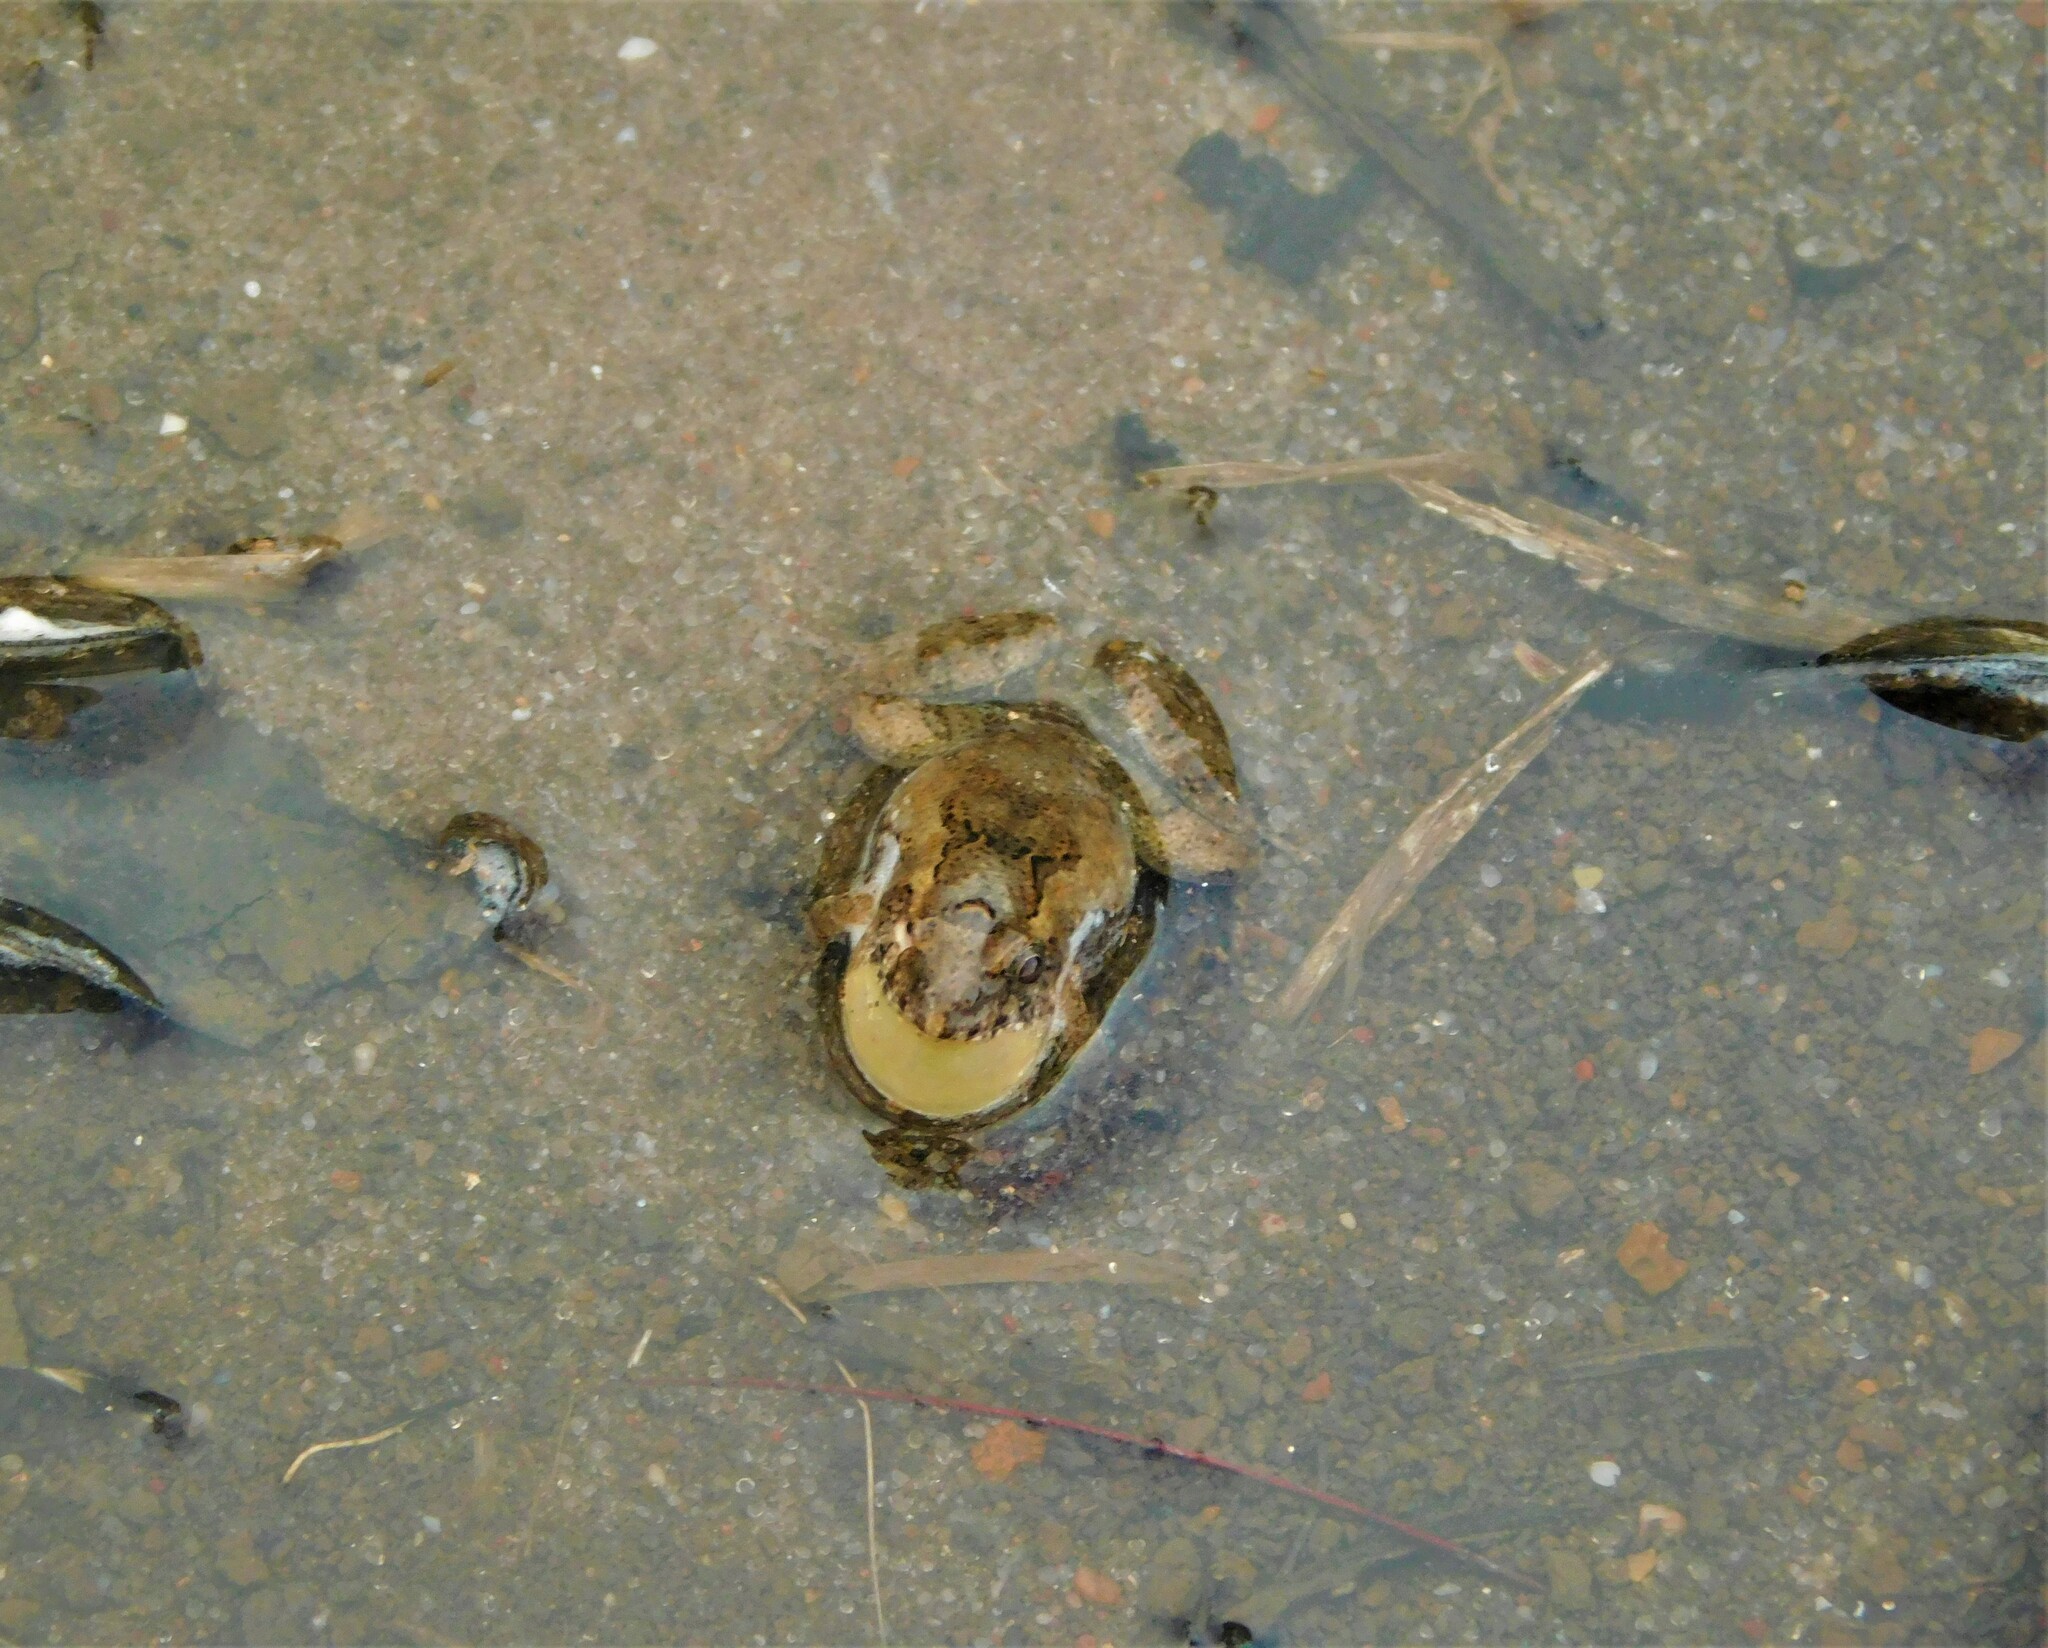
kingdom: Animalia
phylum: Chordata
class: Amphibia
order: Anura
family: Leptodactylidae
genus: Pseudopaludicola
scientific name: Pseudopaludicola falcipes
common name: Hensel’s swamp frog
